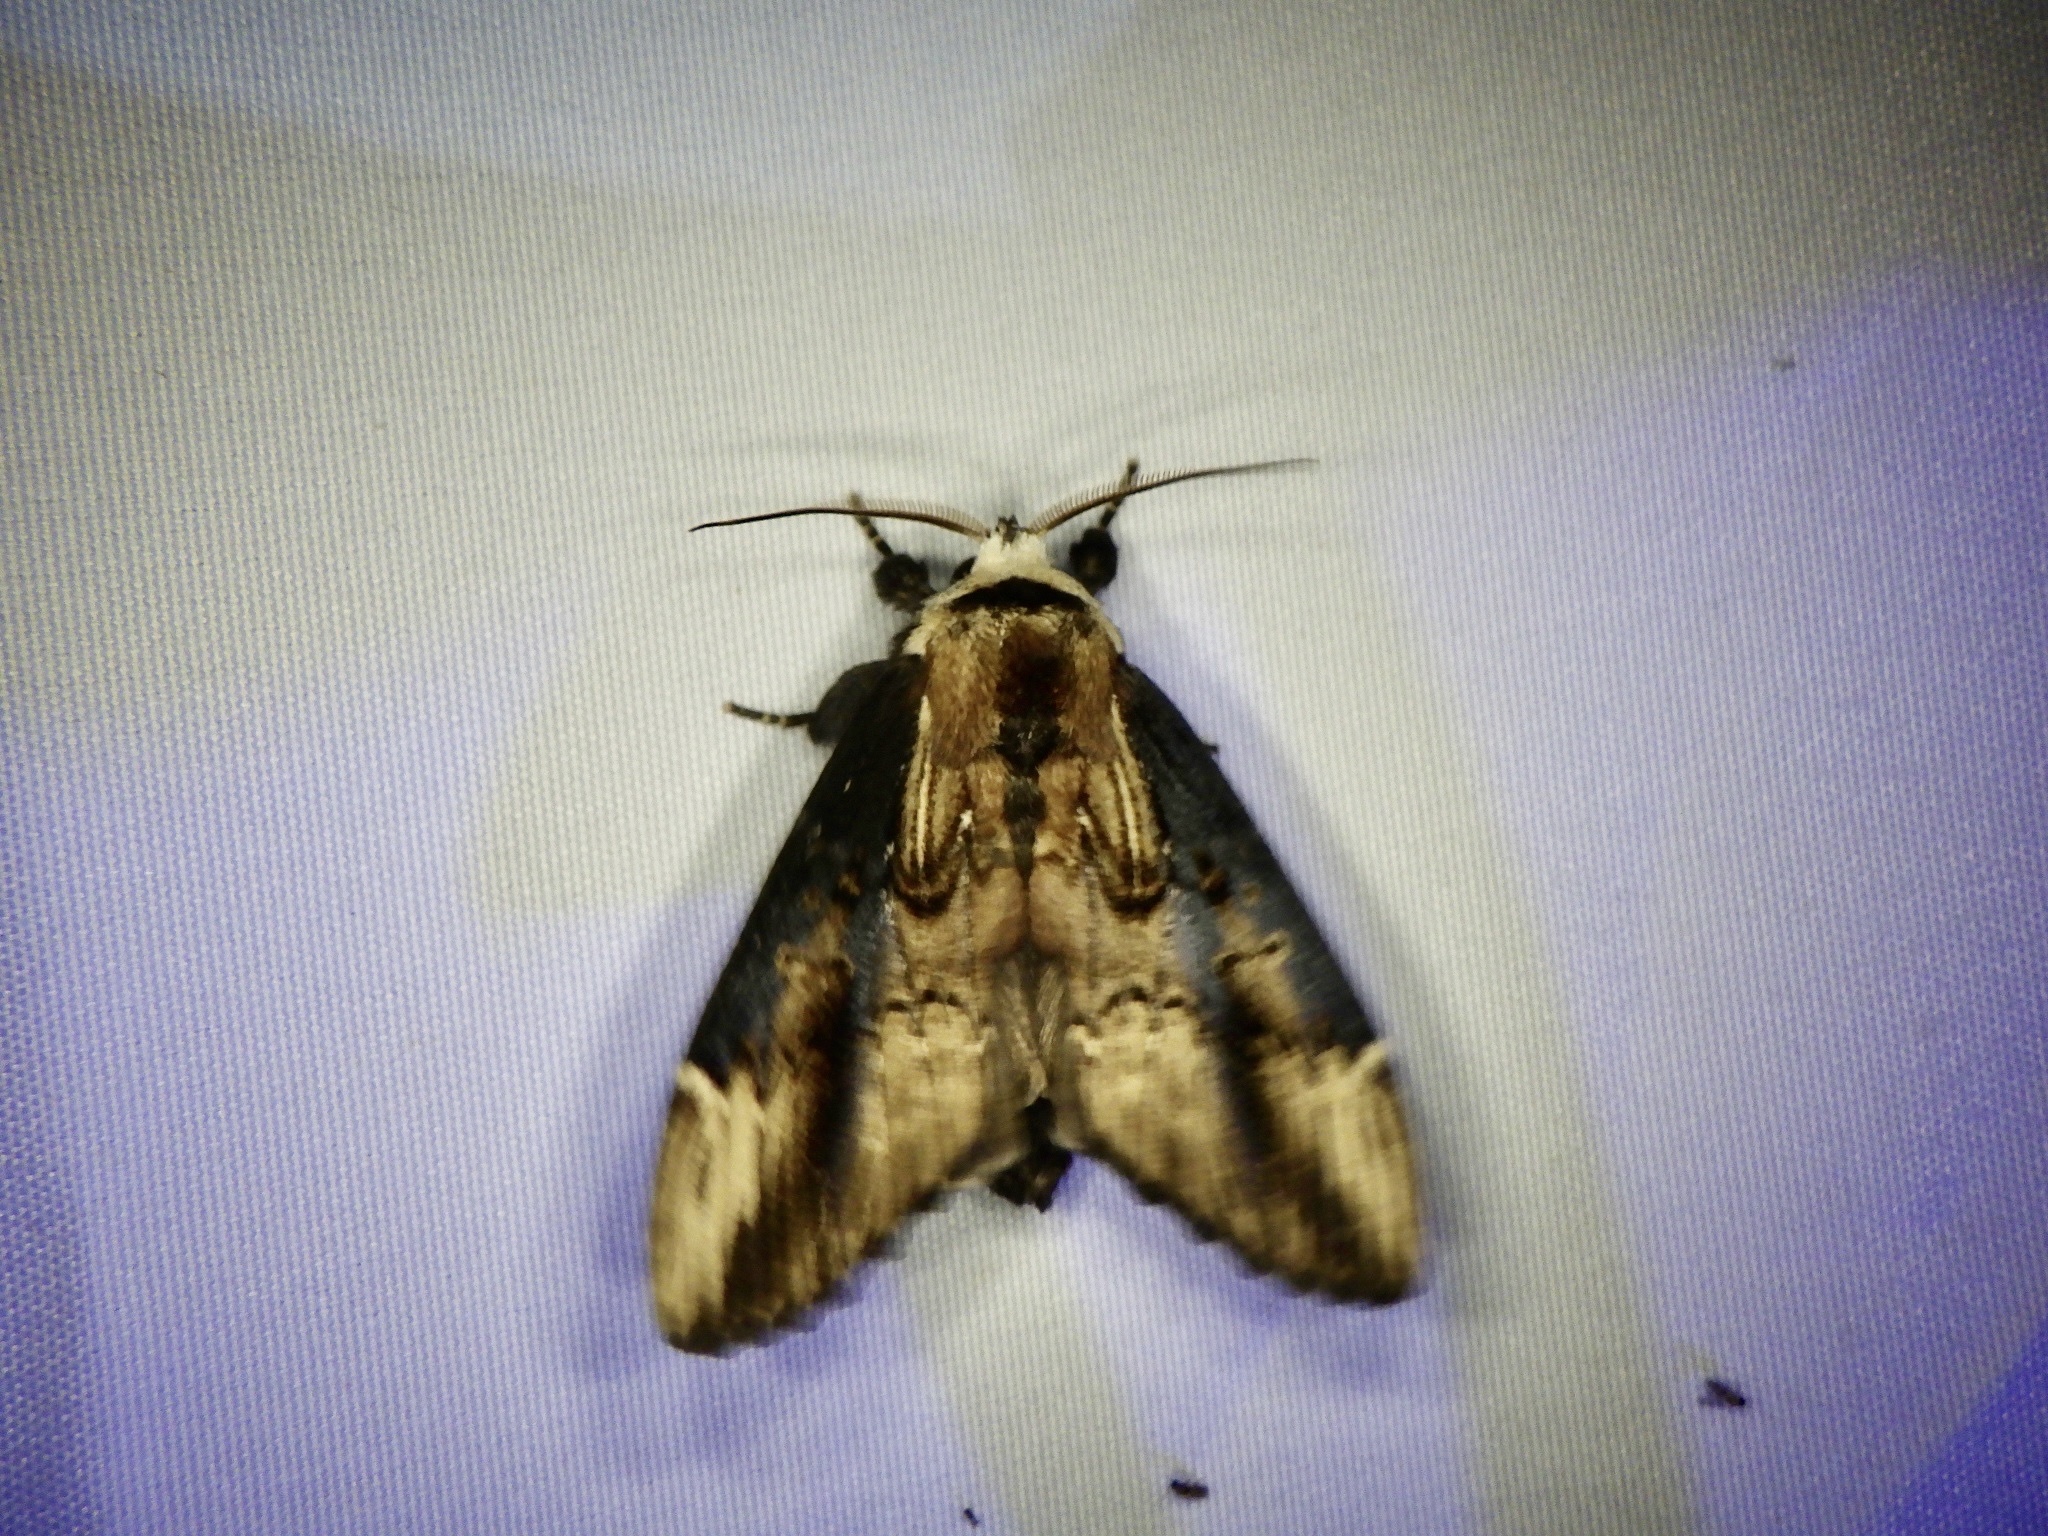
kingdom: Animalia
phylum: Arthropoda
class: Insecta
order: Lepidoptera
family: Notodontidae
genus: Hexafrenum
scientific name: Hexafrenum leucodera
